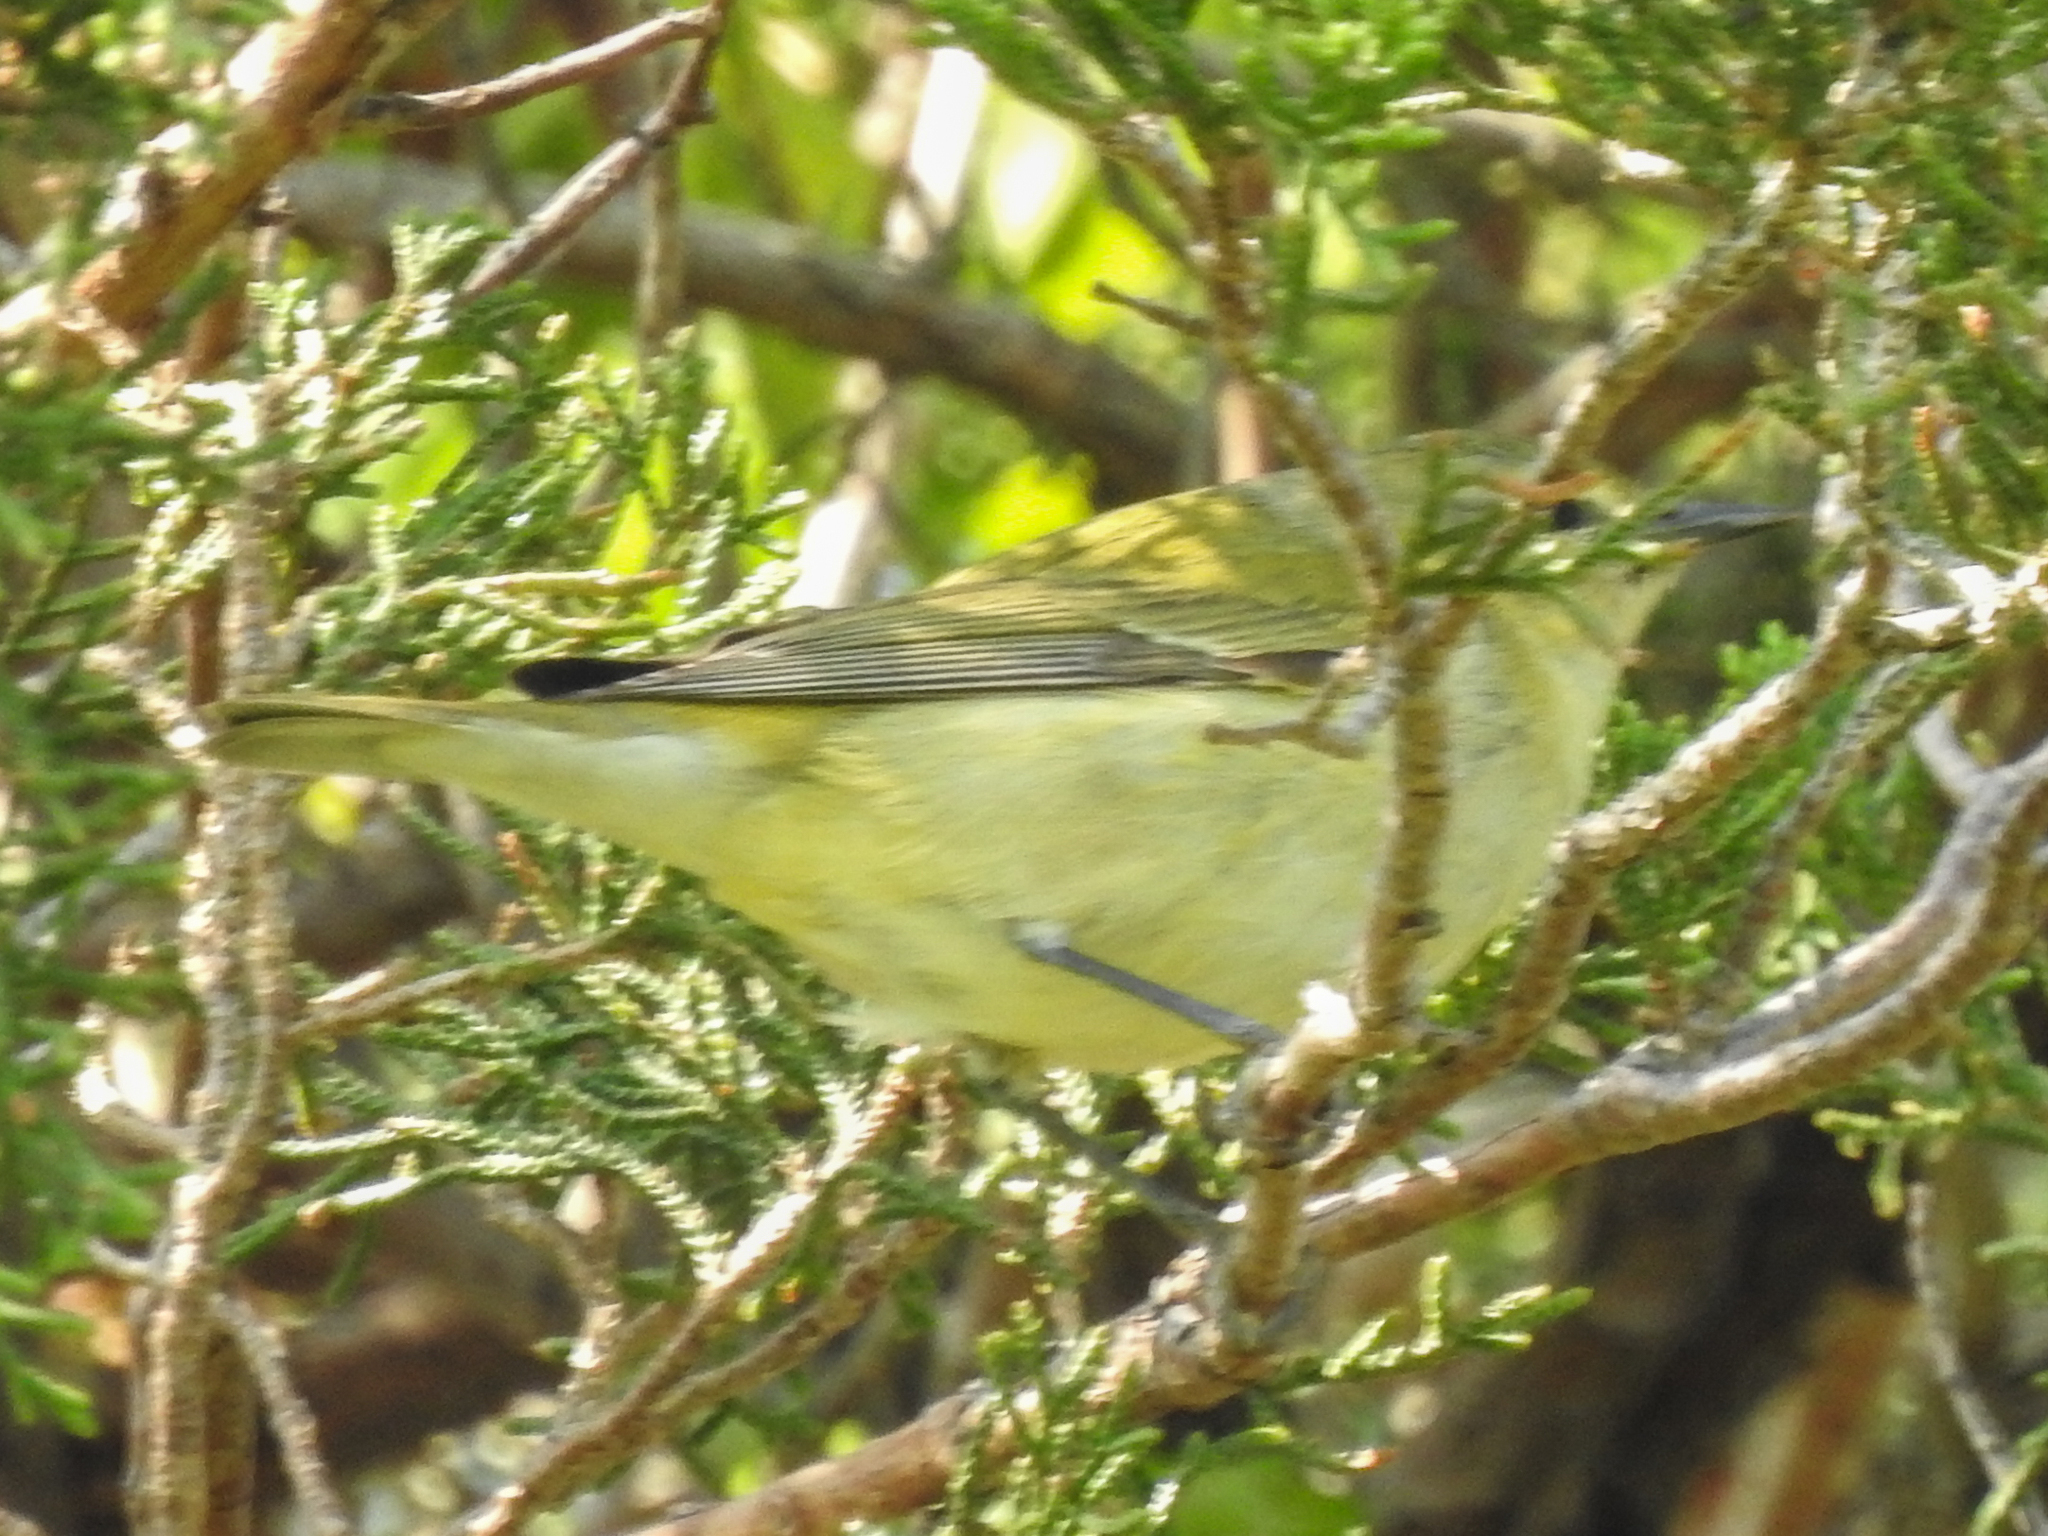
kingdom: Animalia
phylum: Chordata
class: Aves
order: Passeriformes
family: Parulidae
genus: Leiothlypis
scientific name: Leiothlypis peregrina
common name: Tennessee warbler
